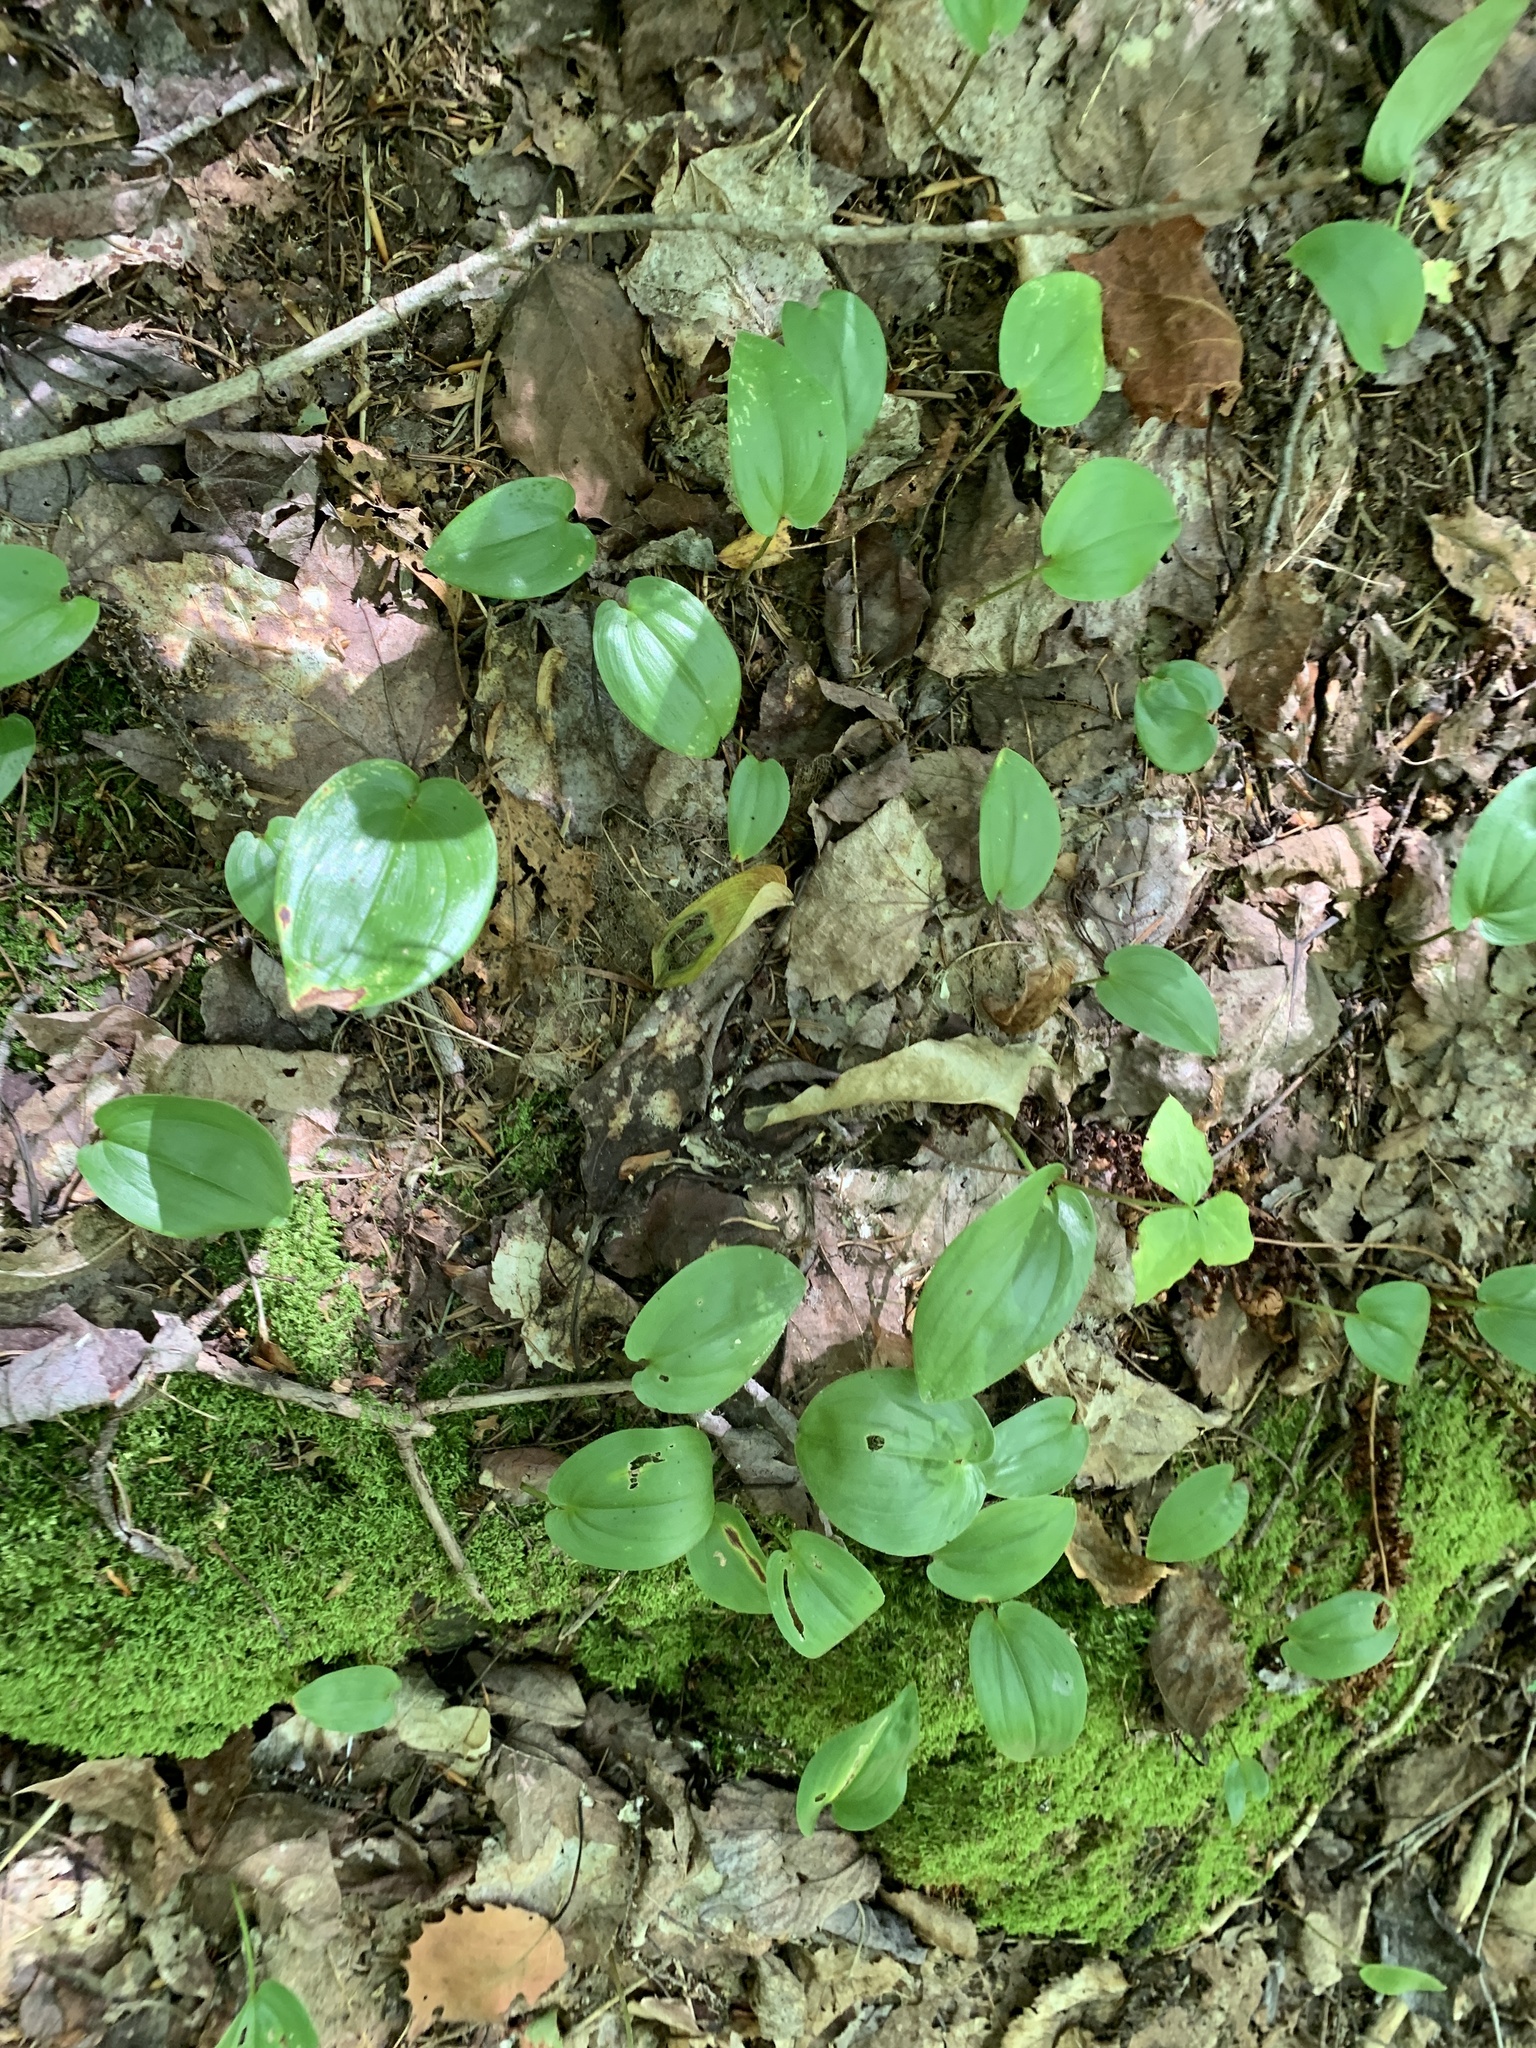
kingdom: Plantae
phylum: Tracheophyta
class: Liliopsida
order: Asparagales
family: Asparagaceae
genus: Maianthemum
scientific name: Maianthemum canadense
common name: False lily-of-the-valley
